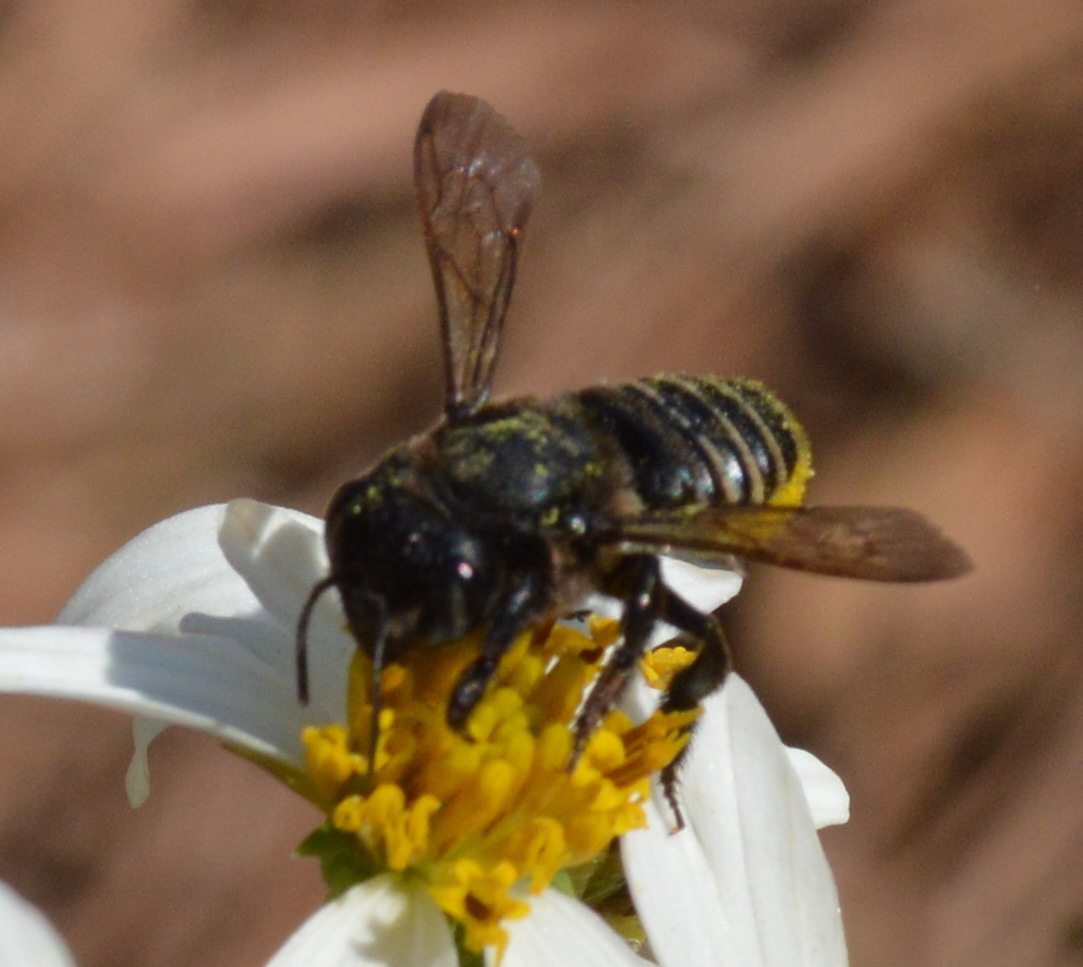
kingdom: Animalia
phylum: Arthropoda
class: Insecta
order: Hymenoptera
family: Megachilidae
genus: Megachile
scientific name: Megachile pruina
